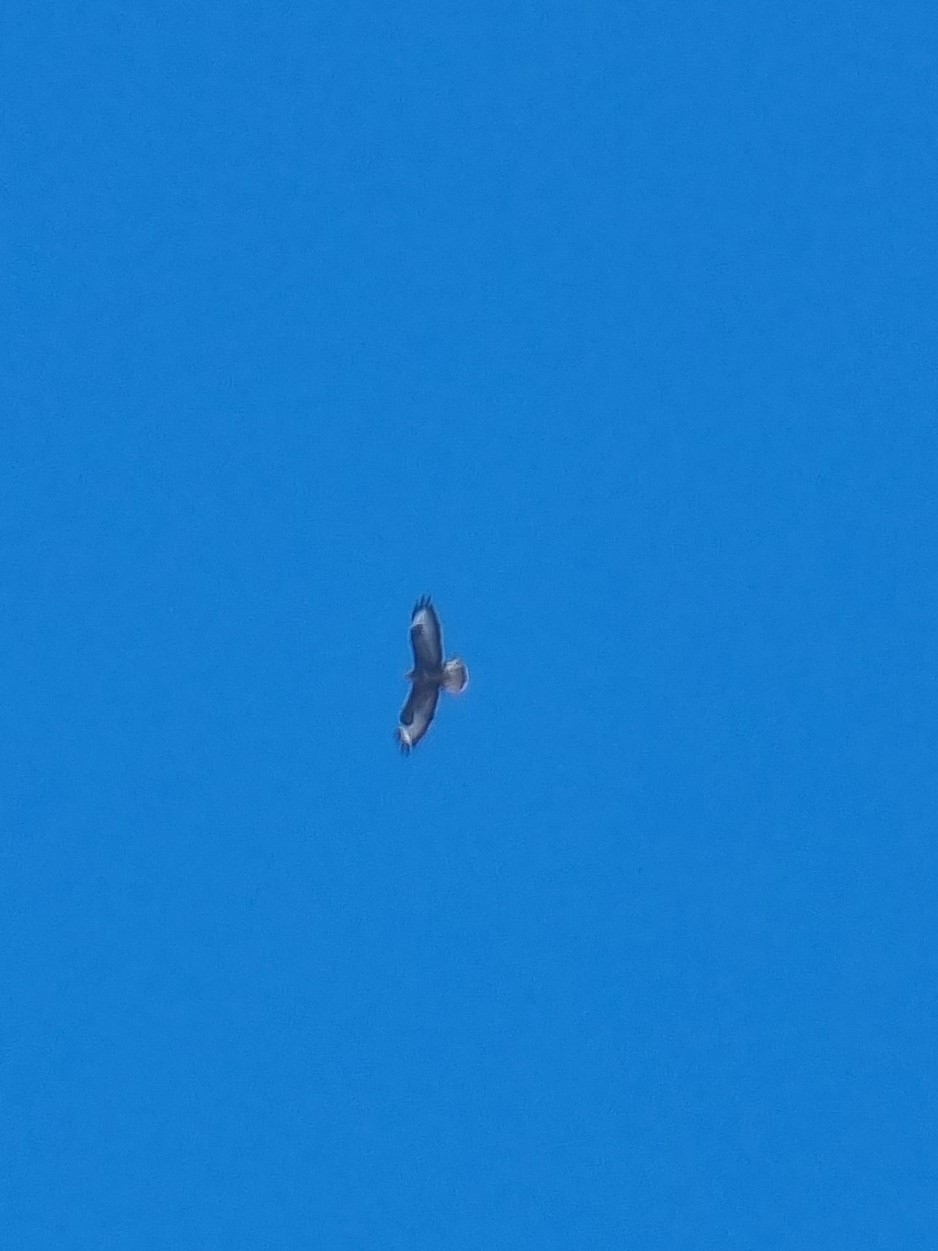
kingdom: Animalia
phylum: Chordata
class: Aves
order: Accipitriformes
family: Accipitridae
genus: Buteo
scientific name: Buteo buteo
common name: Common buzzard
